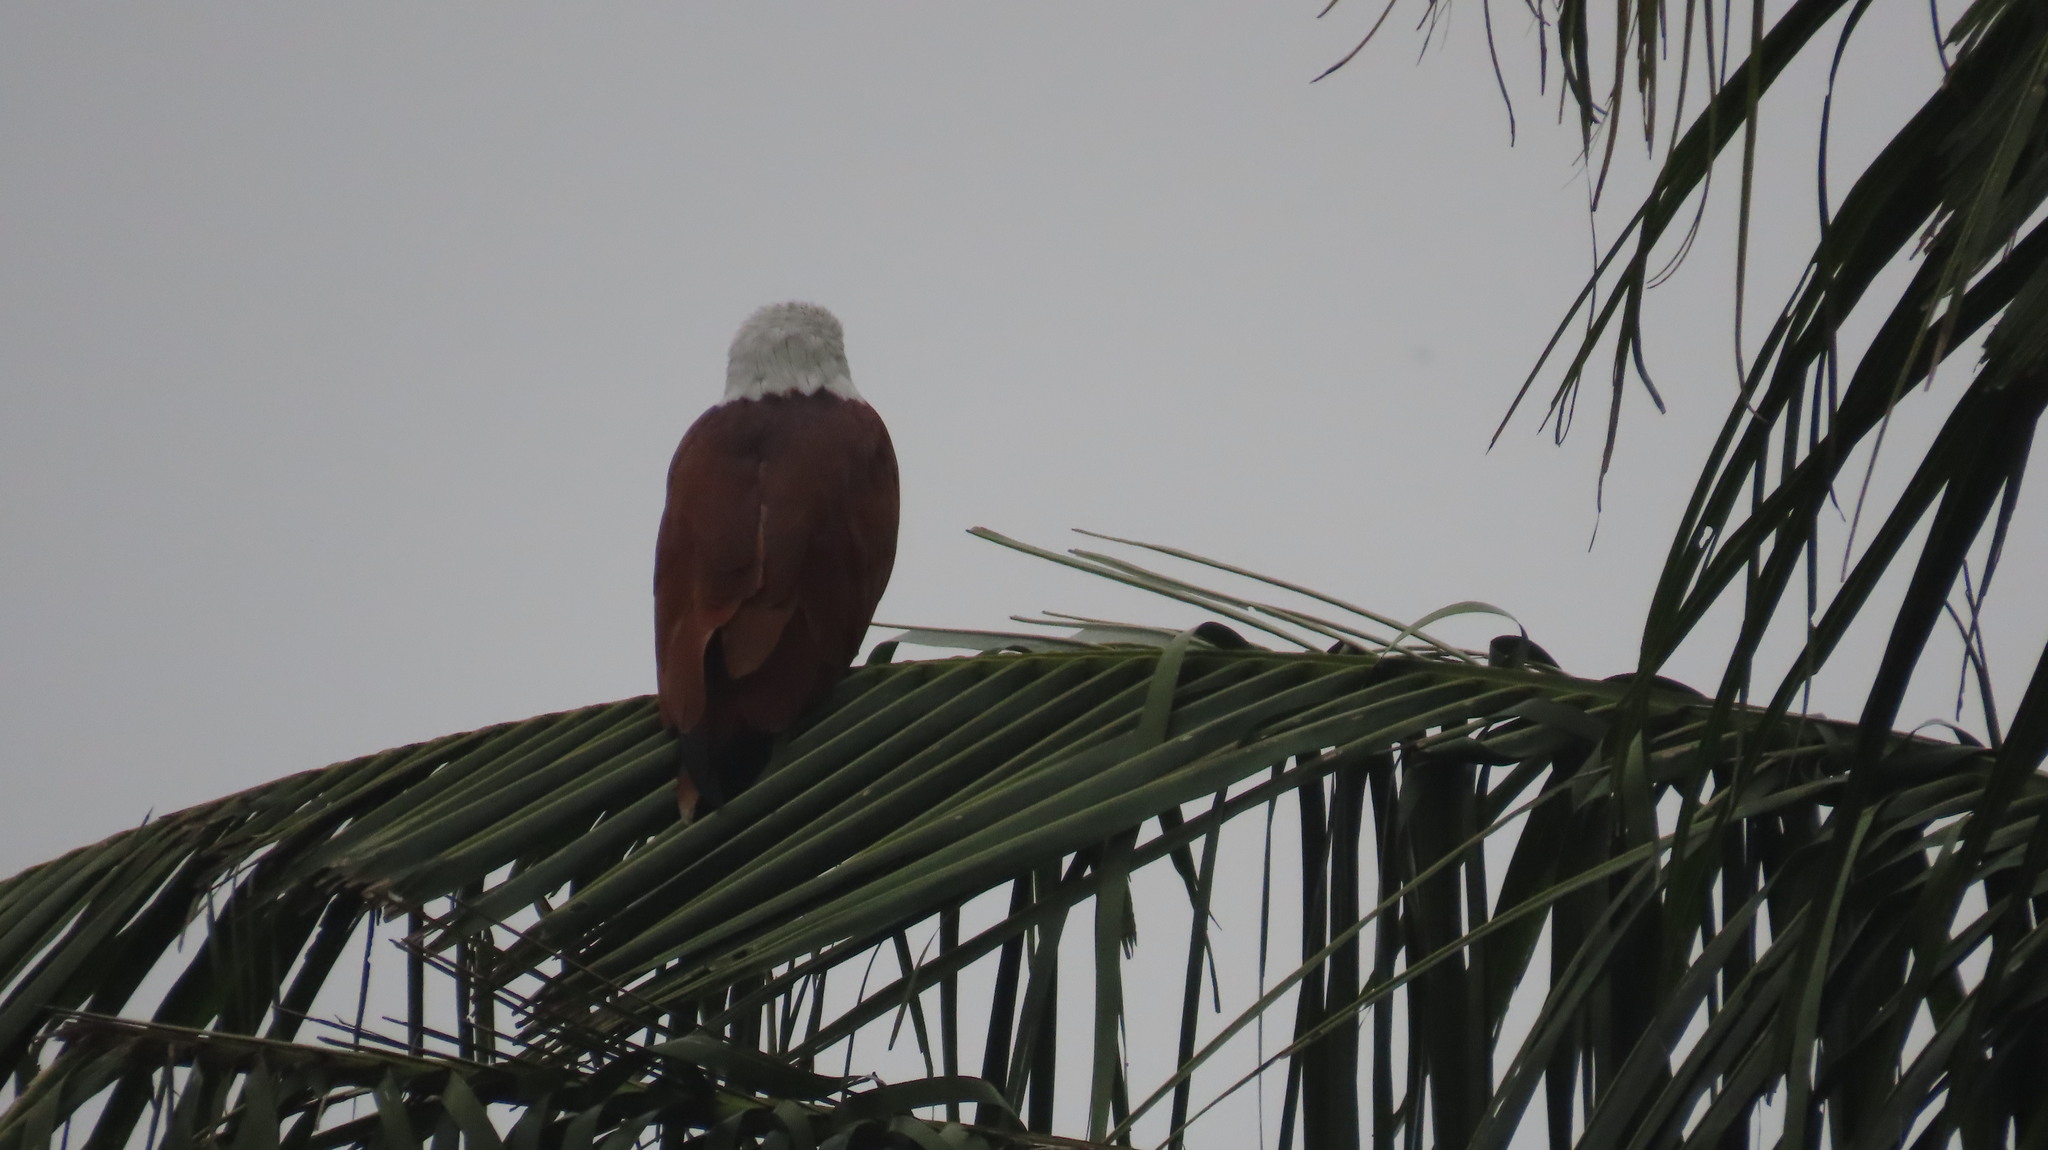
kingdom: Animalia
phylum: Chordata
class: Aves
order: Accipitriformes
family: Accipitridae
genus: Haliastur
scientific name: Haliastur indus
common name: Brahminy kite
